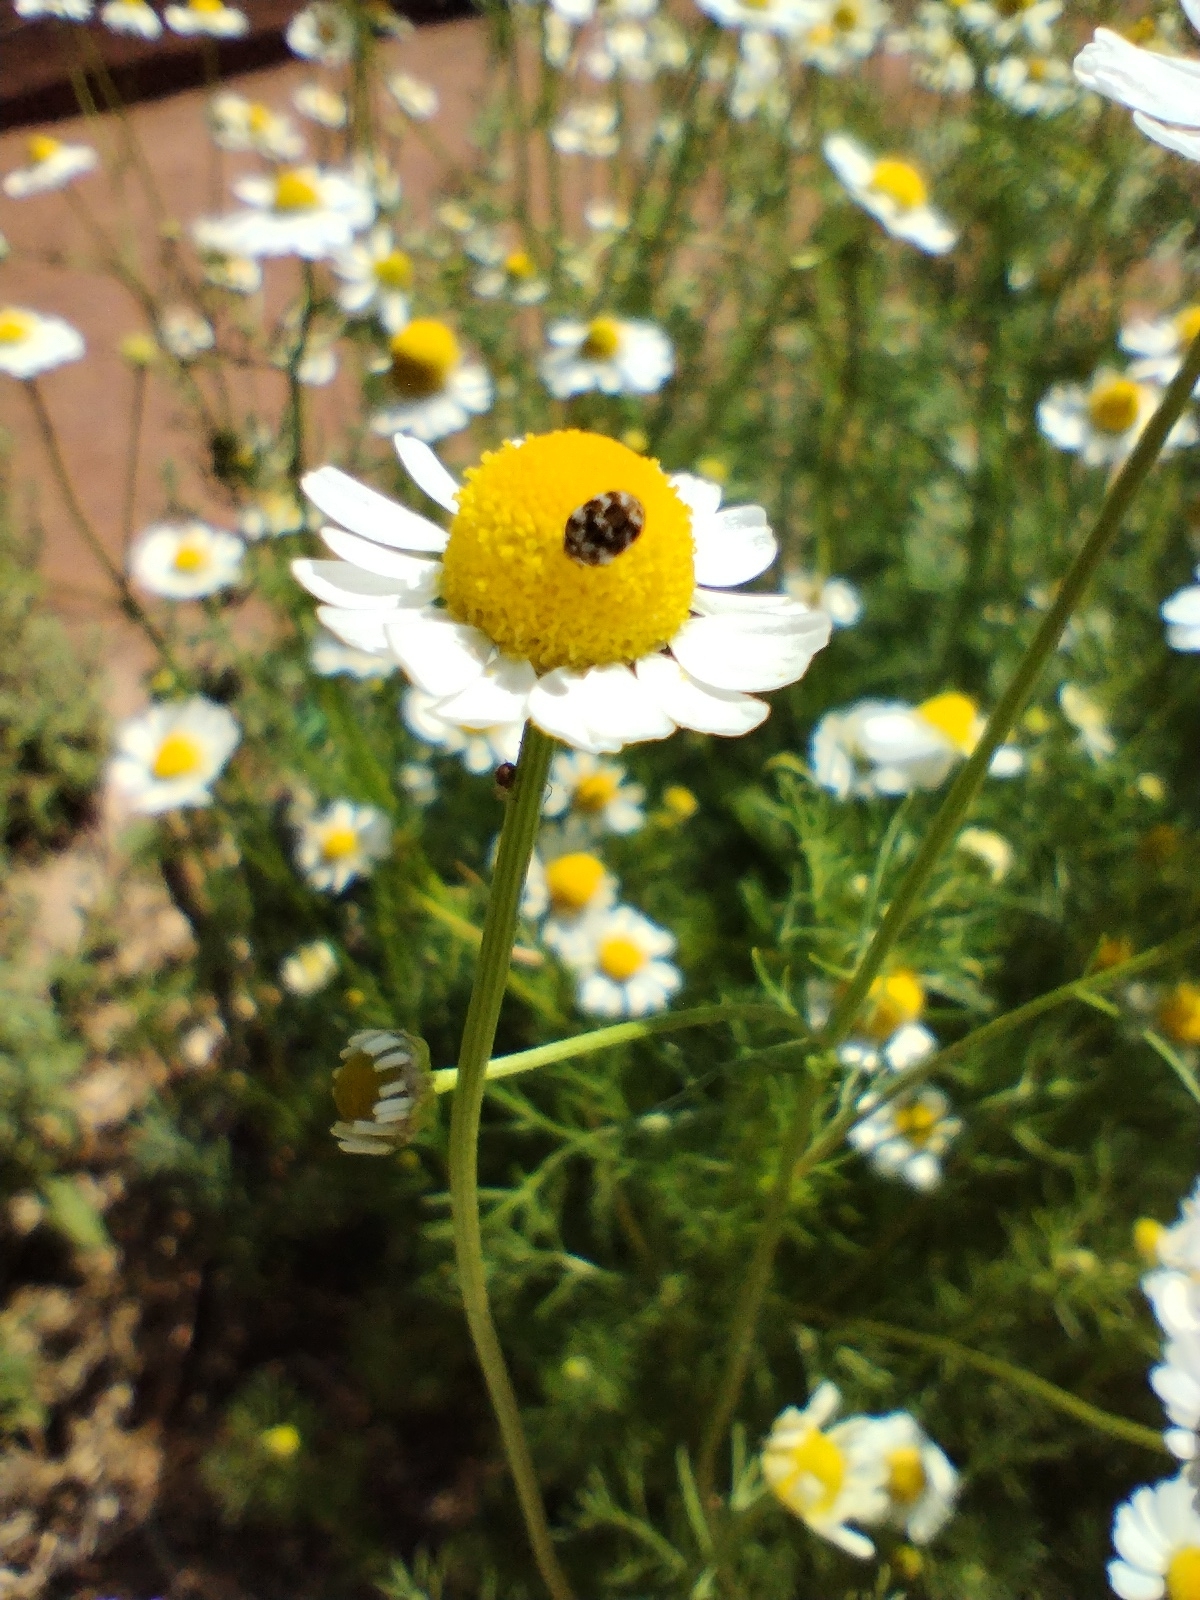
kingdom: Animalia
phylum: Arthropoda
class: Insecta
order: Coleoptera
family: Dermestidae
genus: Anthrenus
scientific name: Anthrenus verbasci
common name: Varied carpet beetle
